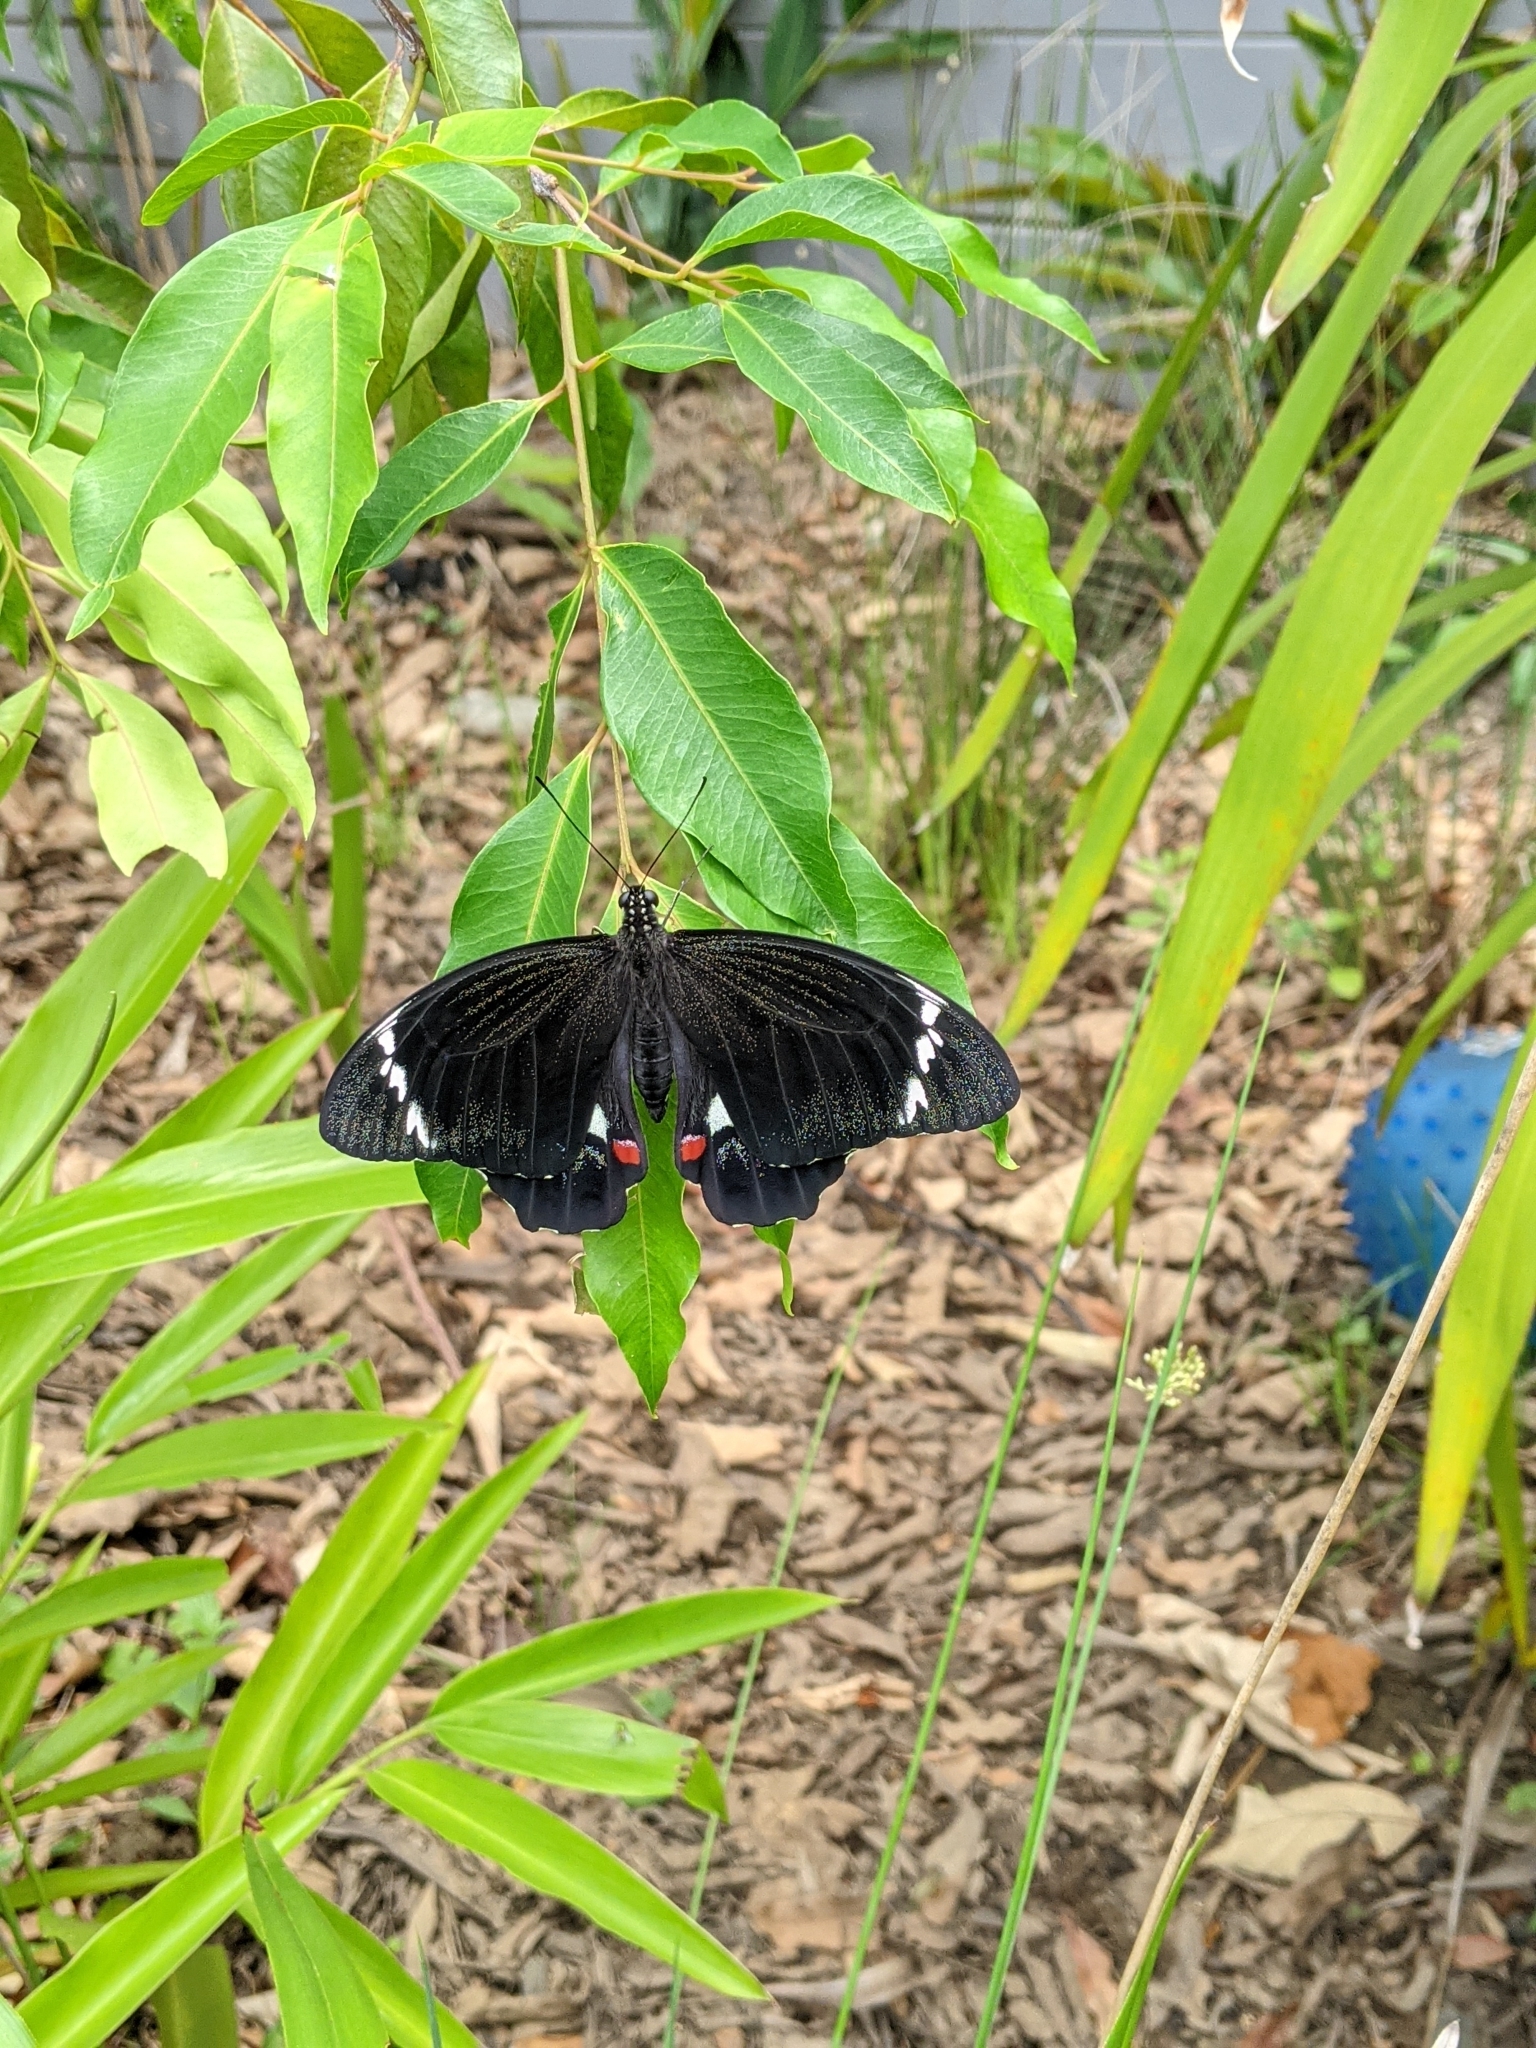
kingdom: Animalia
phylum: Arthropoda
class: Insecta
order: Lepidoptera
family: Papilionidae
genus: Papilio
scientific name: Papilio aegeus
